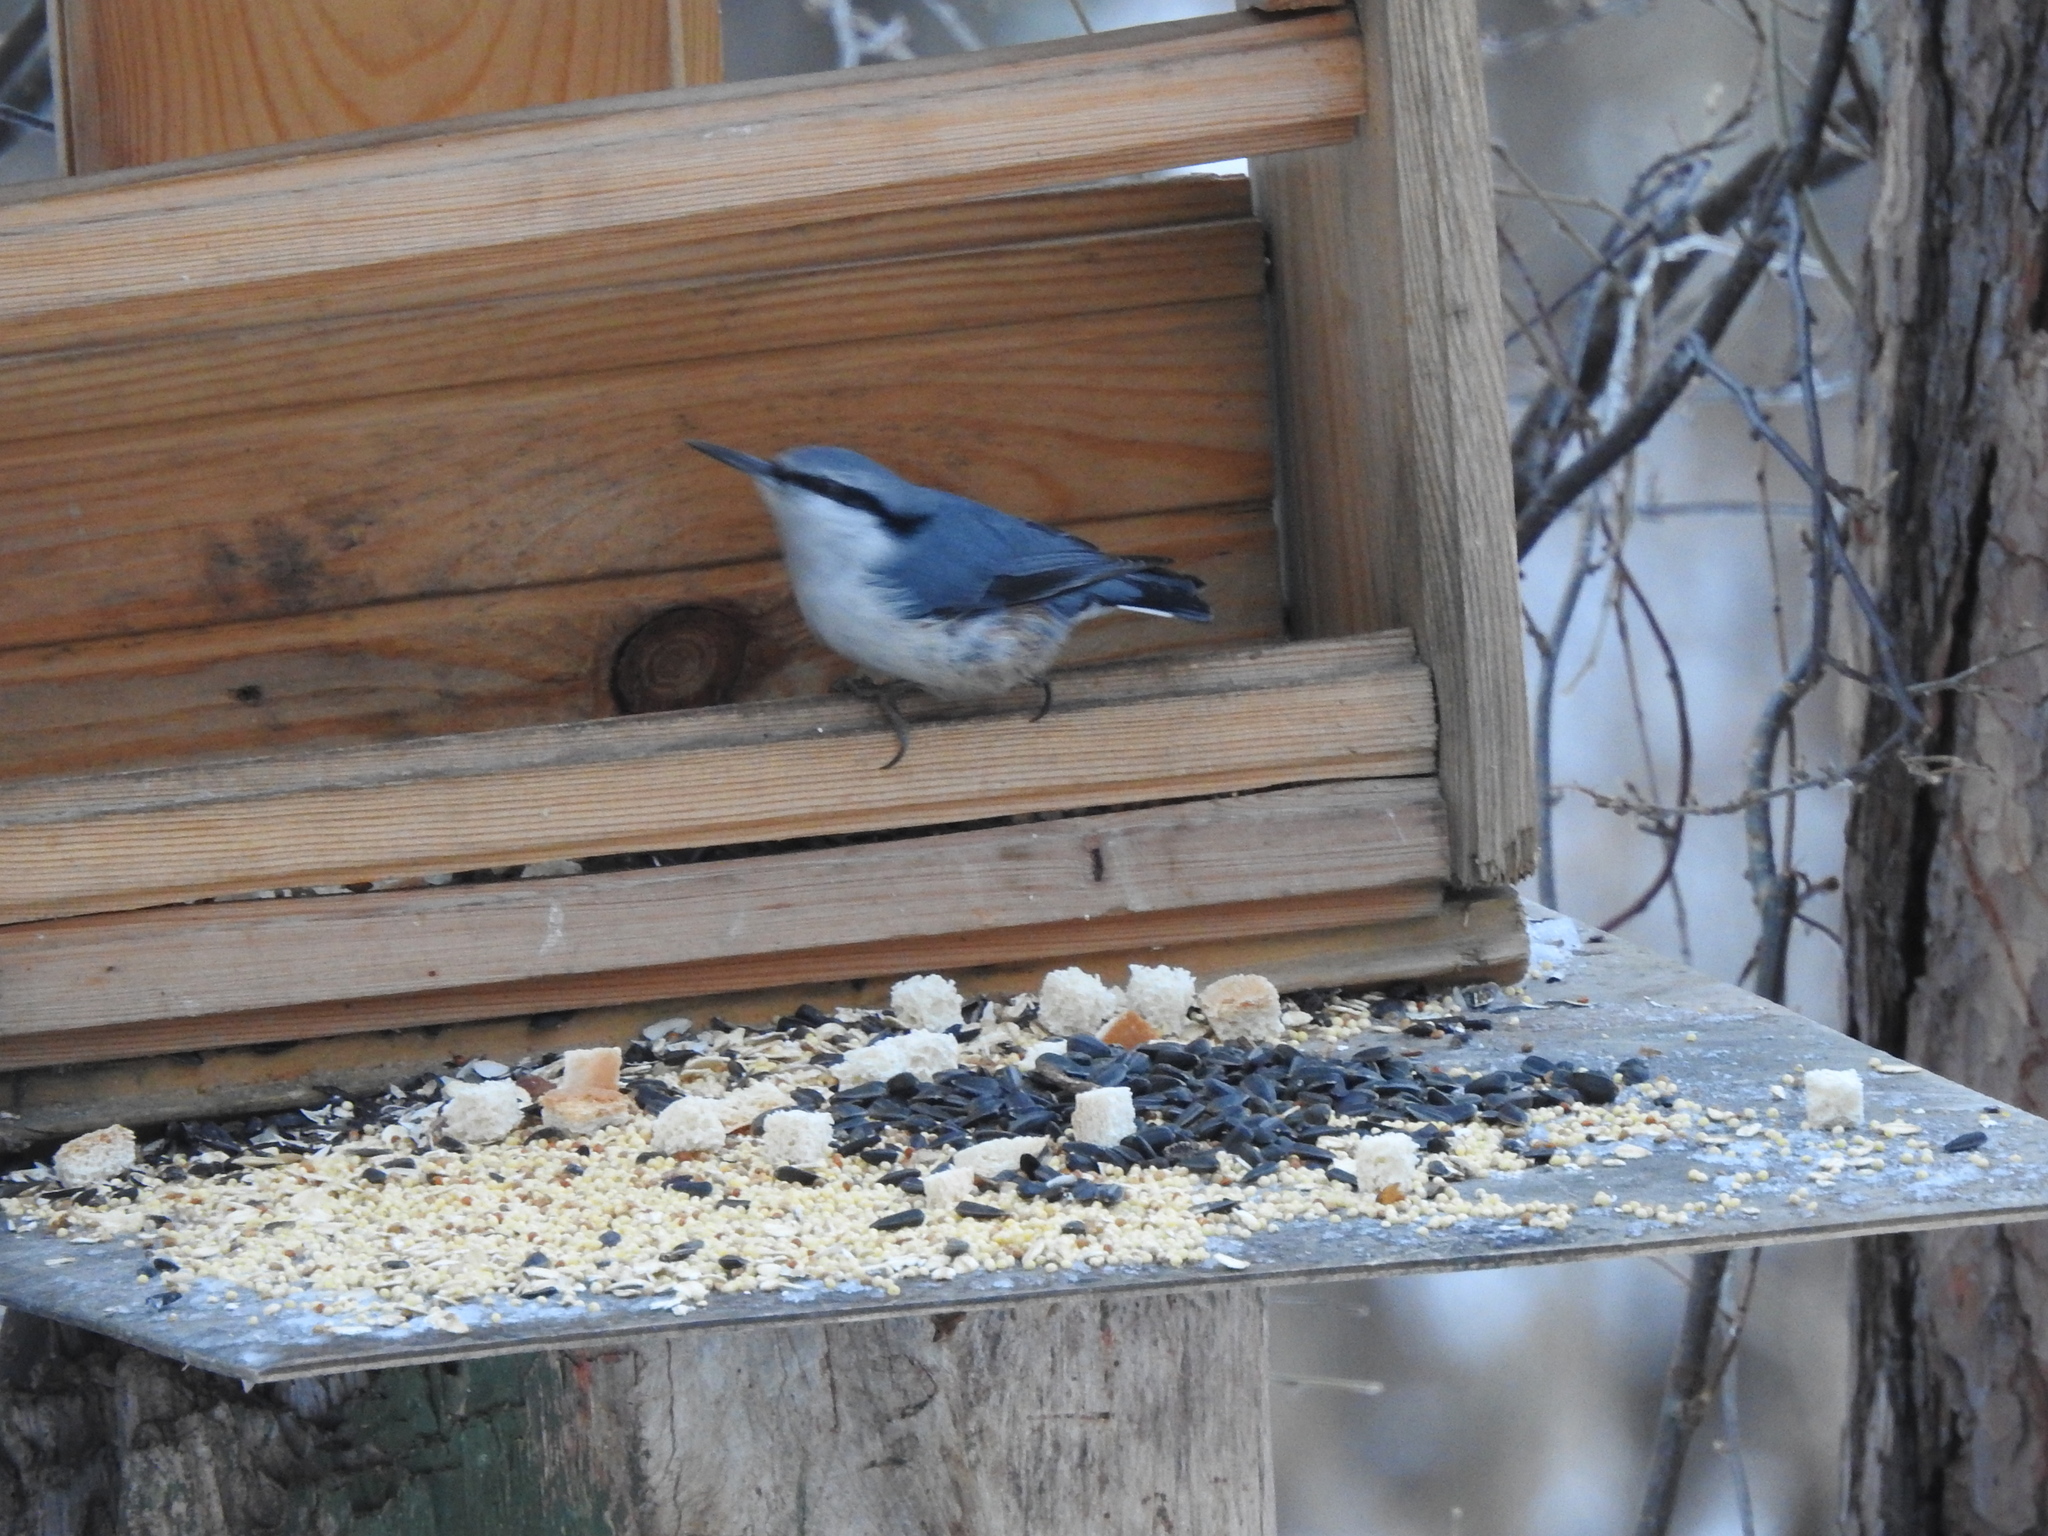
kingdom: Animalia
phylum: Chordata
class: Aves
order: Passeriformes
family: Sittidae
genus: Sitta
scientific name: Sitta europaea
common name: Eurasian nuthatch
